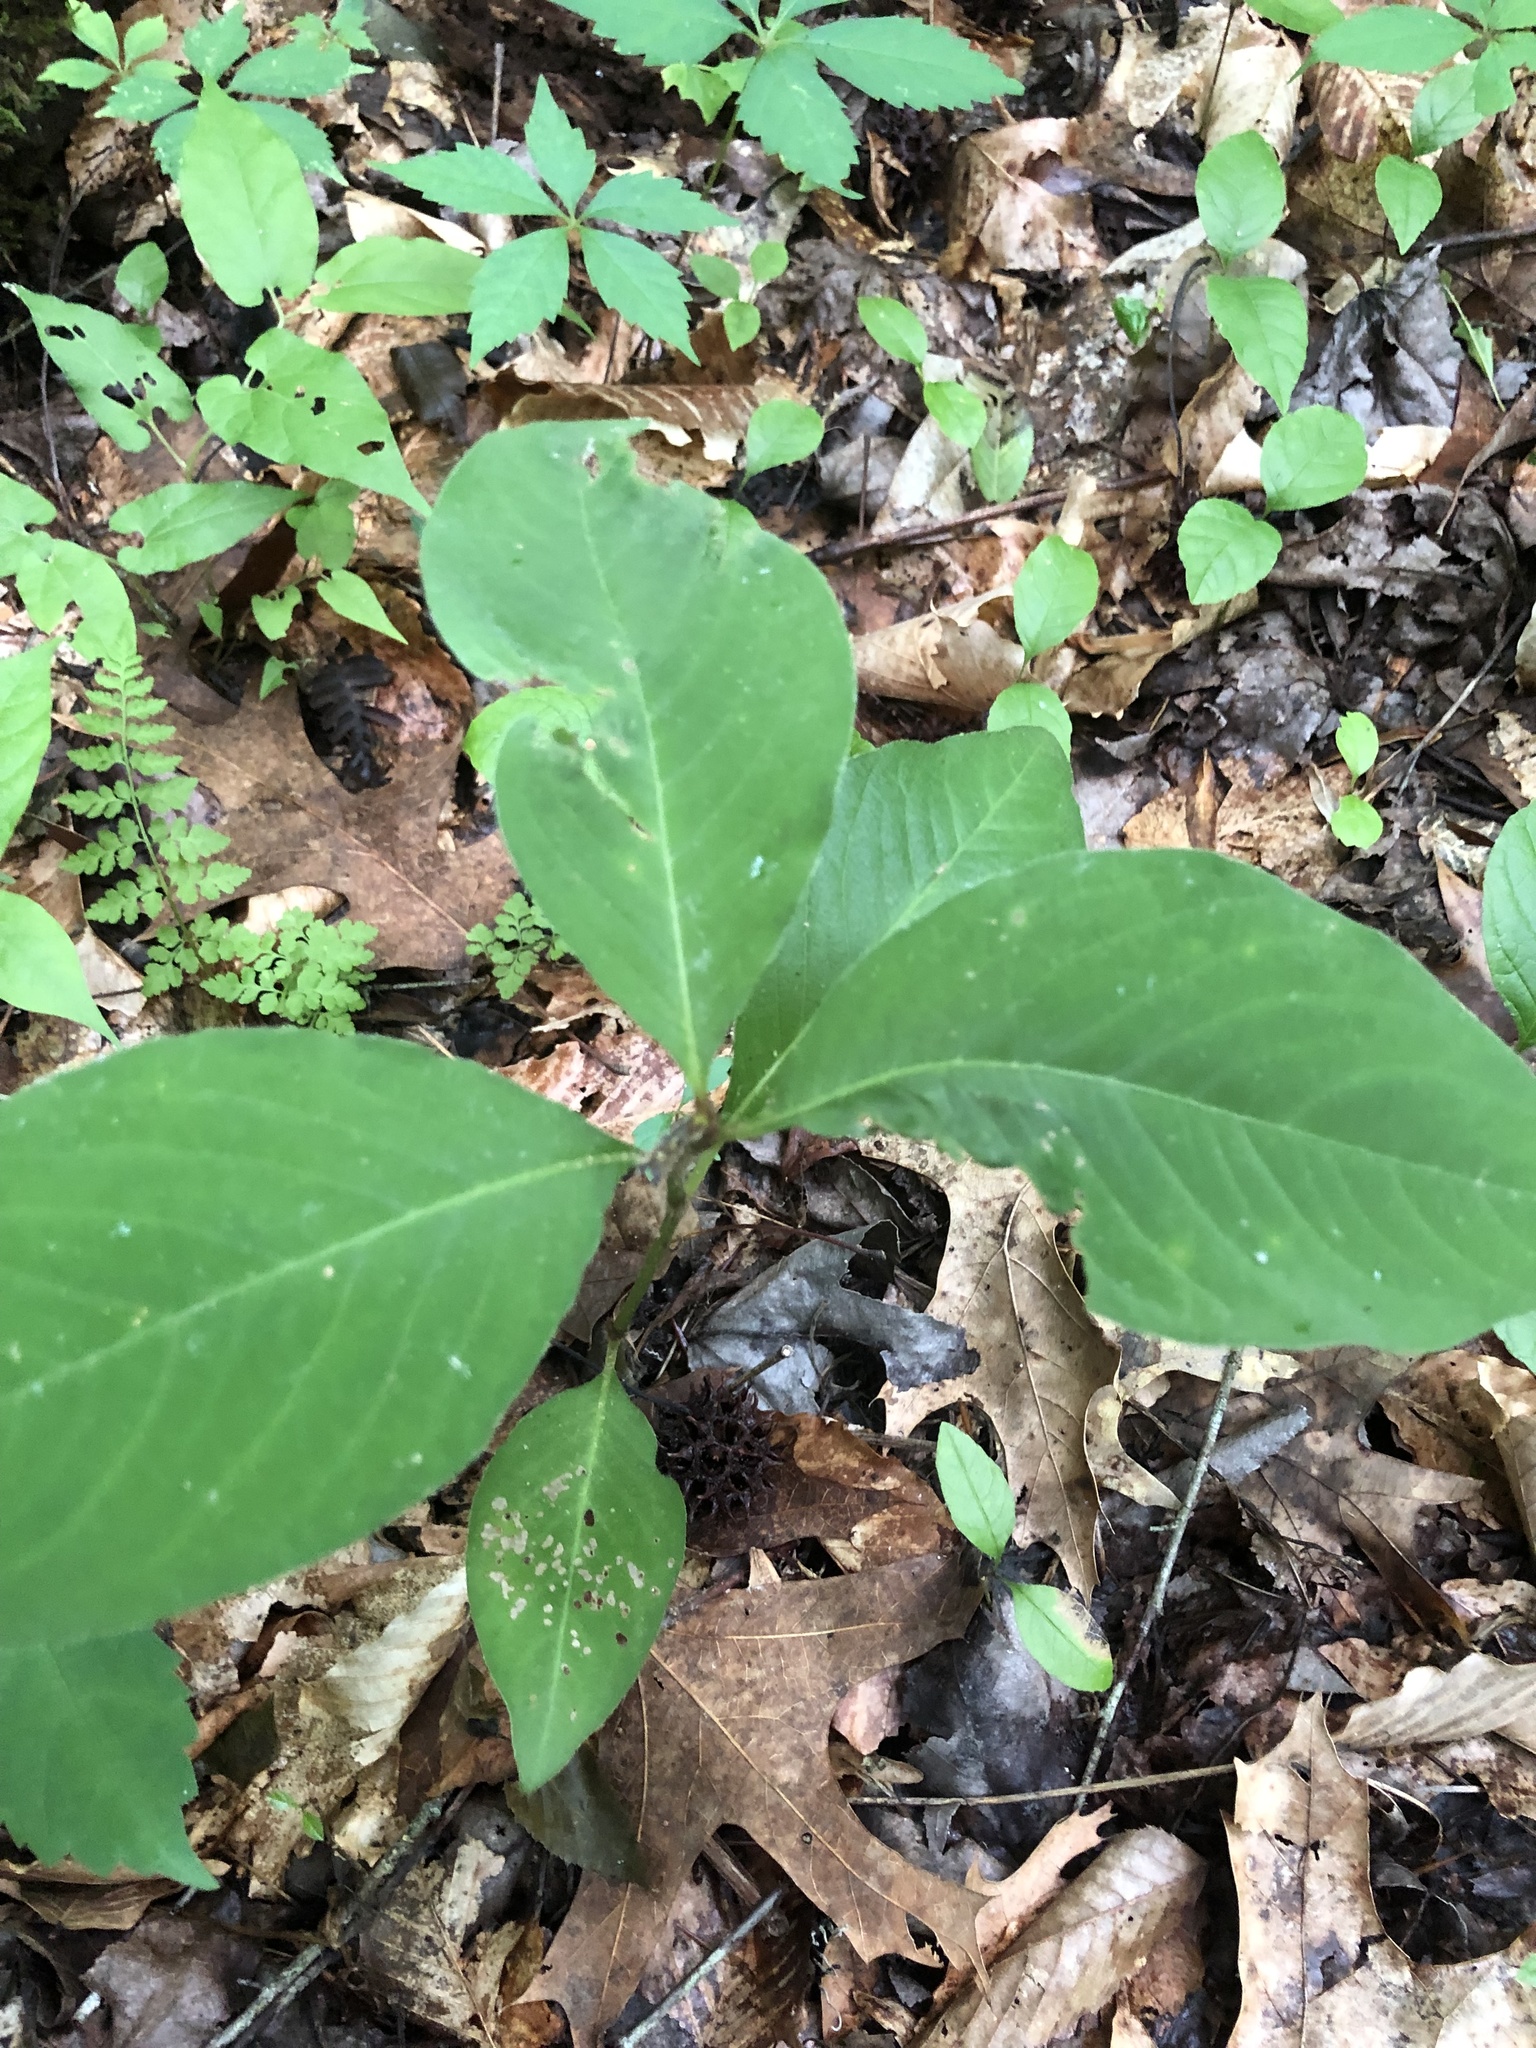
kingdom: Plantae
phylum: Tracheophyta
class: Magnoliopsida
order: Caryophyllales
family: Polygonaceae
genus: Persicaria
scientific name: Persicaria virginiana
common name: Jumpseed
